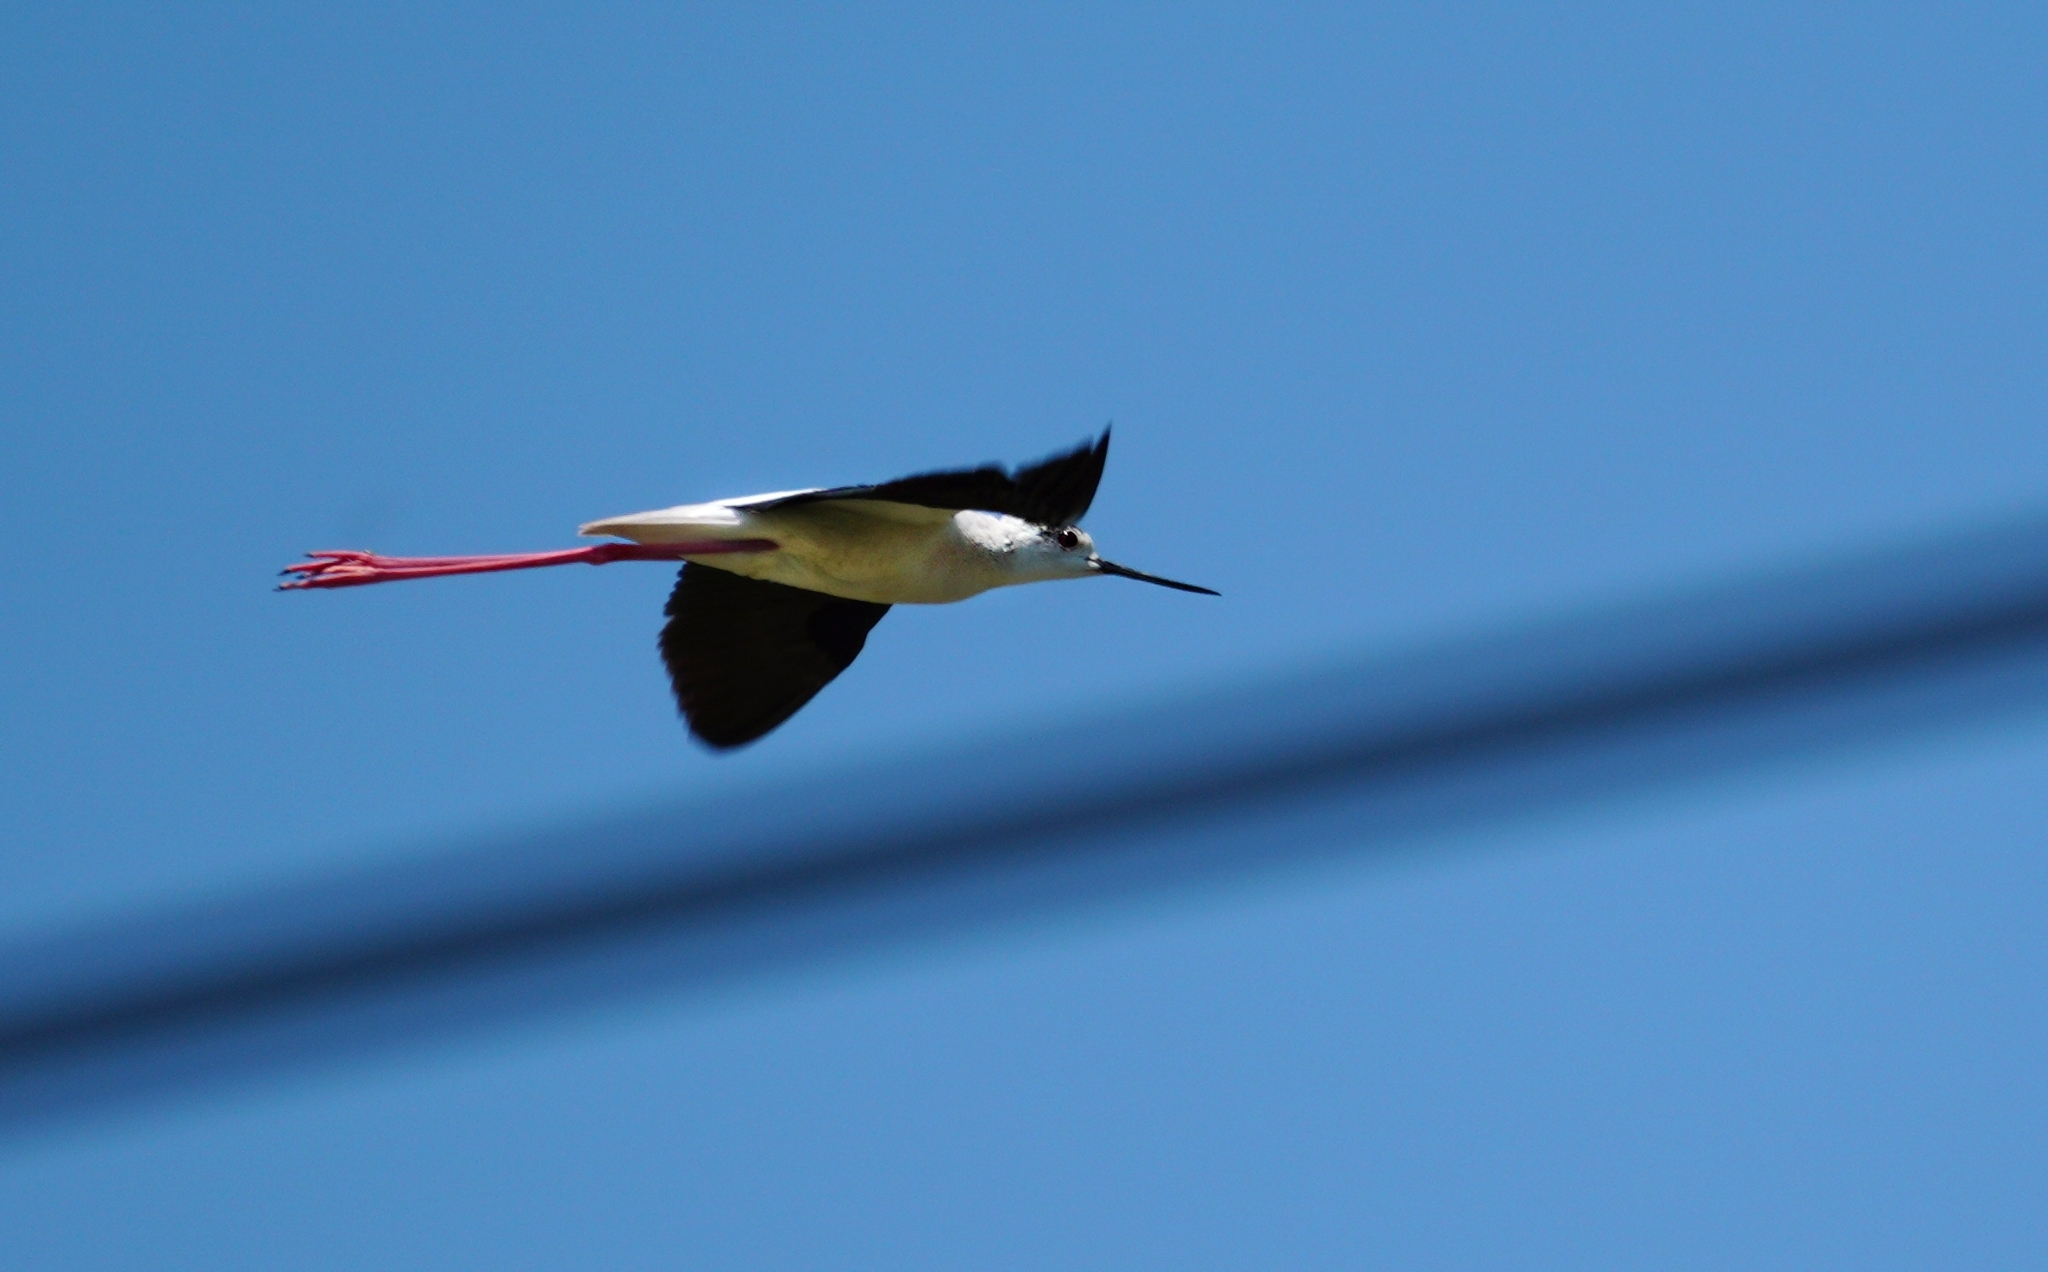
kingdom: Animalia
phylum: Chordata
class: Aves
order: Charadriiformes
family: Recurvirostridae
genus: Himantopus
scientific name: Himantopus himantopus
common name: Black-winged stilt
